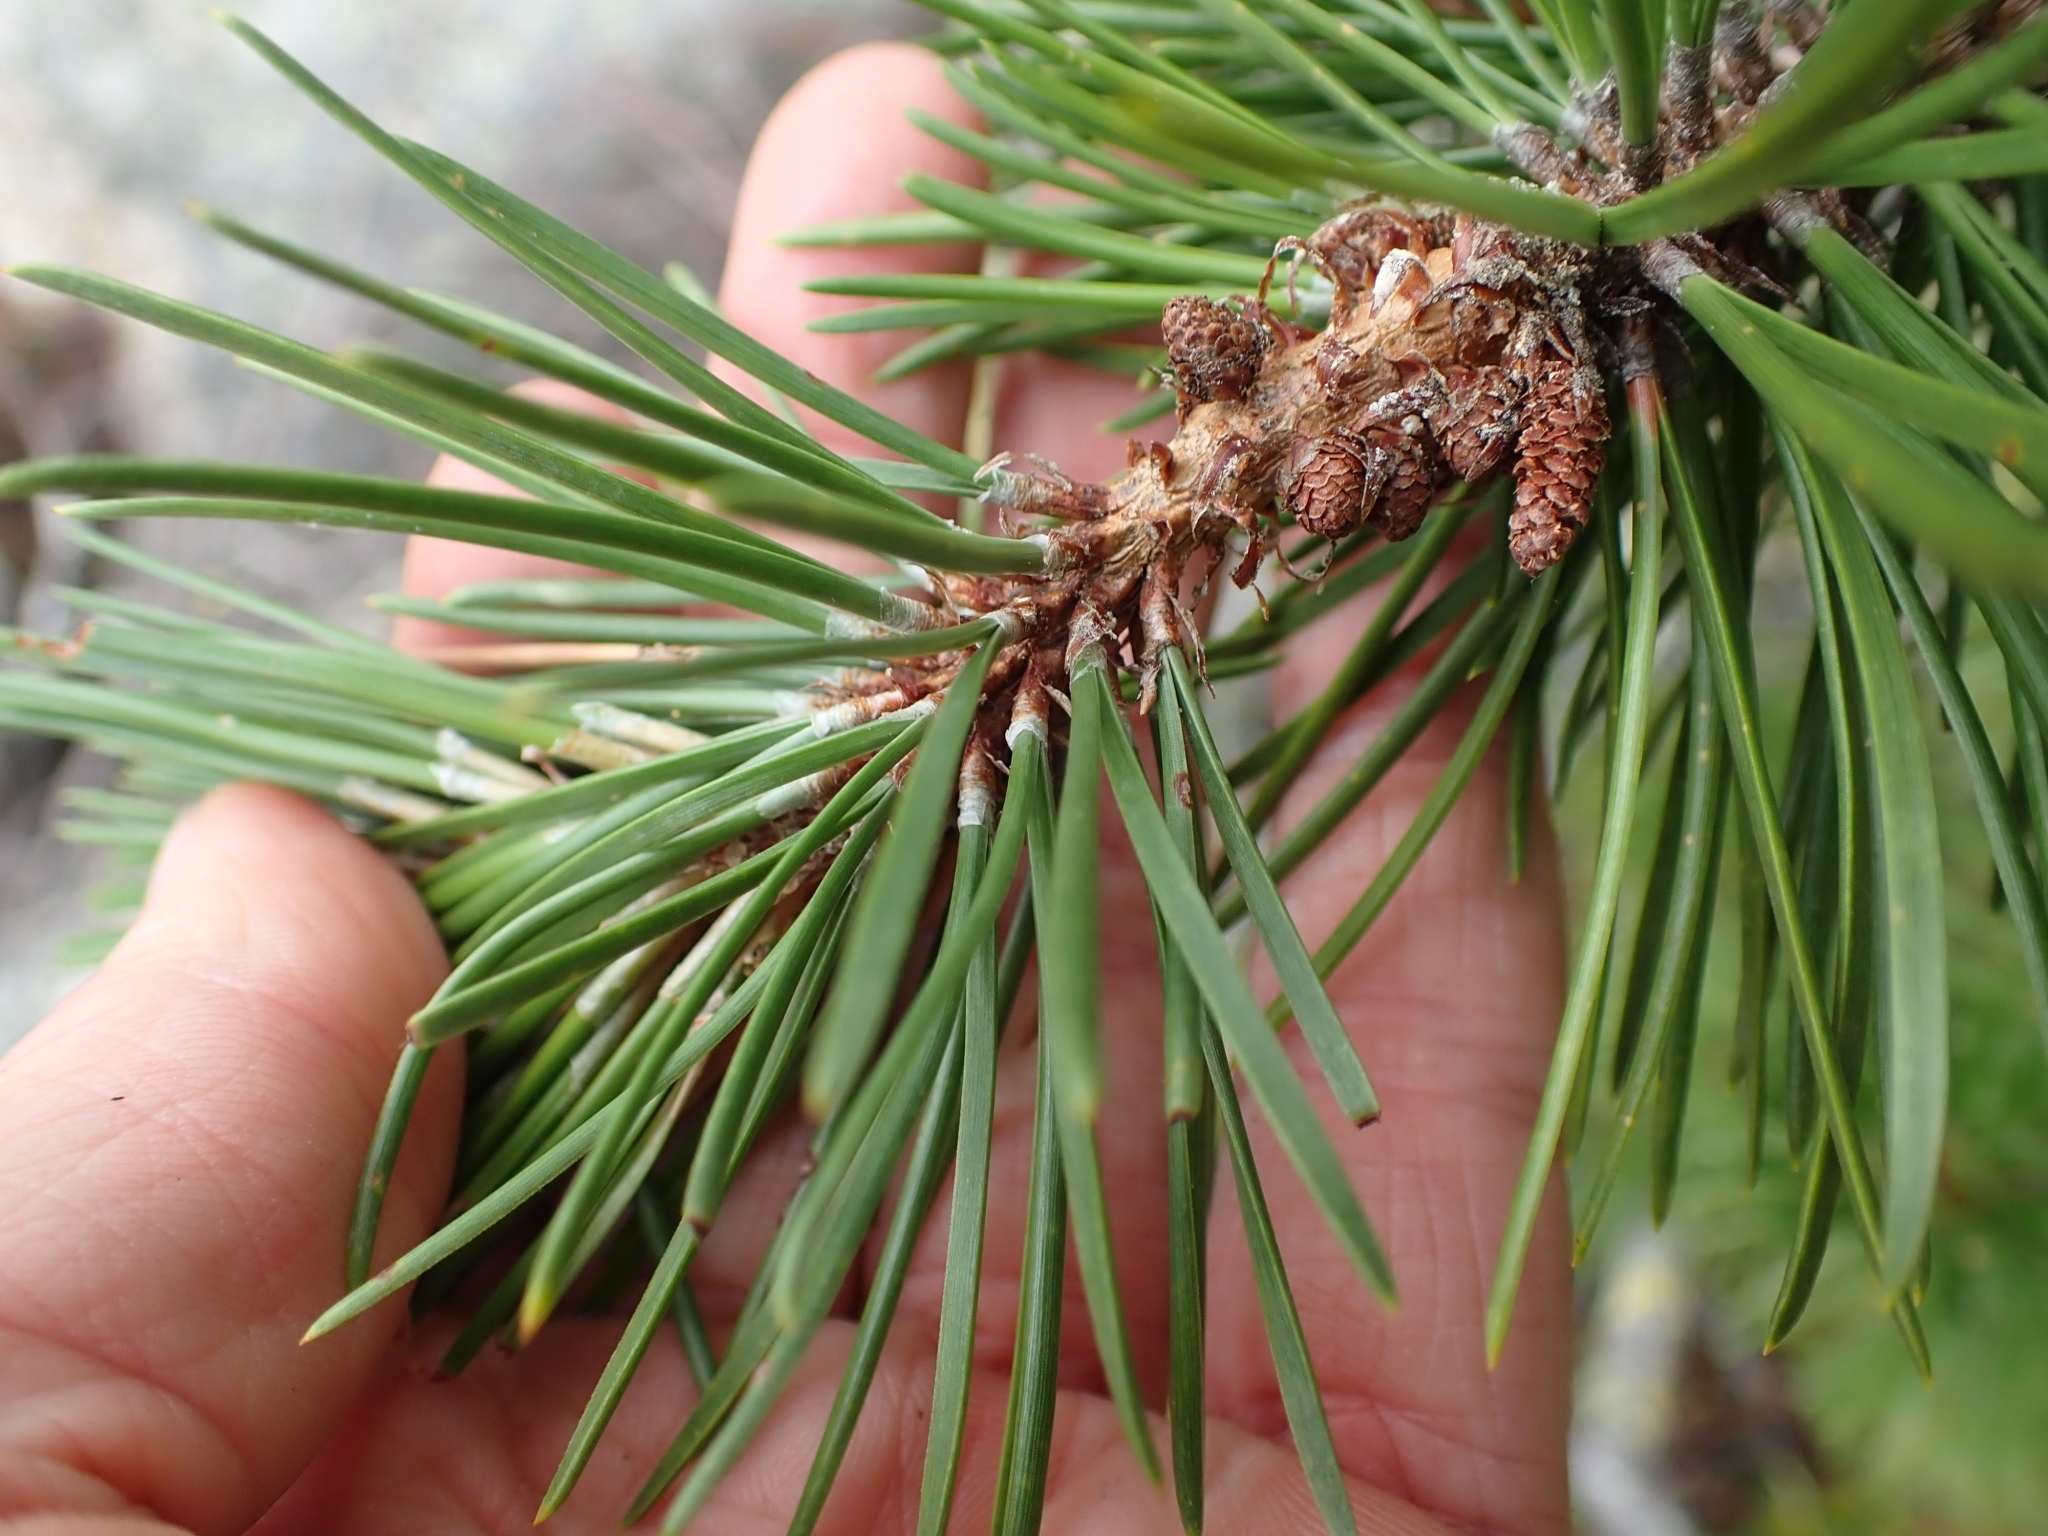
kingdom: Plantae
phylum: Tracheophyta
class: Pinopsida
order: Pinales
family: Pinaceae
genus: Pinus
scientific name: Pinus contorta
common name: Lodgepole pine
